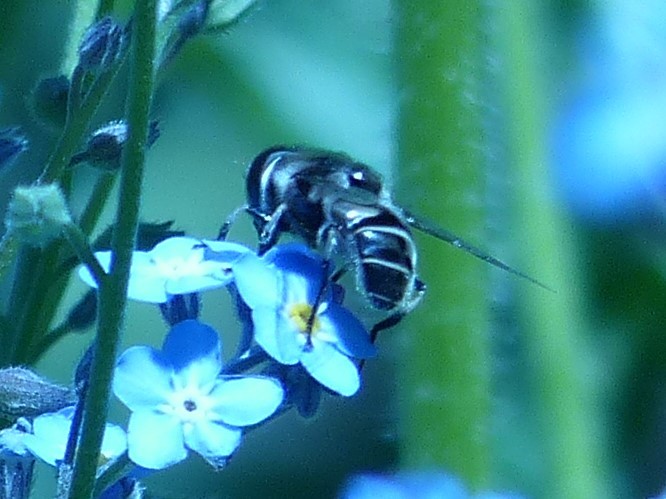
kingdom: Animalia
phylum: Arthropoda
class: Insecta
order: Diptera
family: Syrphidae
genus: Eristalis
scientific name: Eristalis dimidiata
